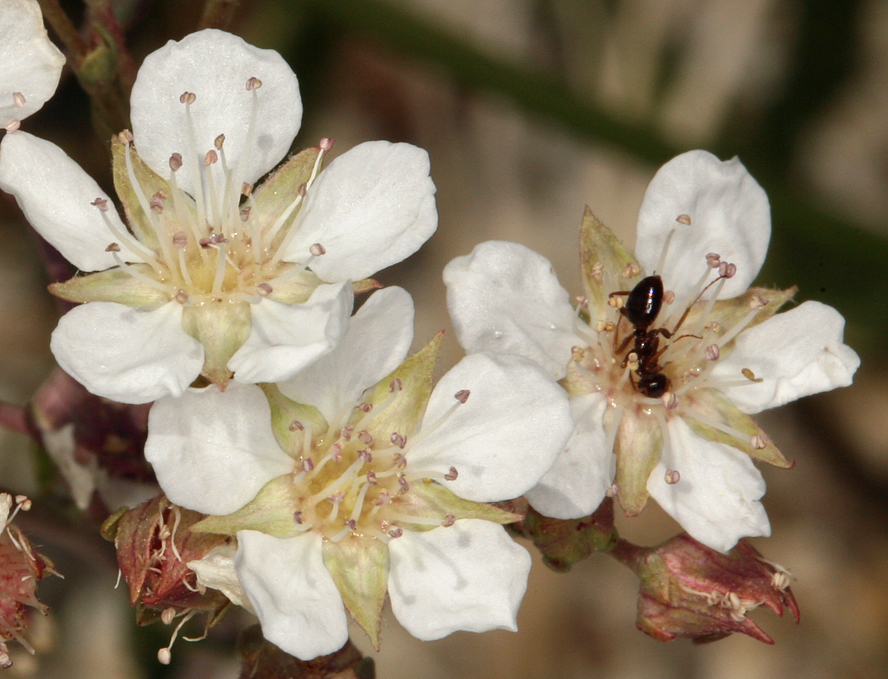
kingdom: Plantae
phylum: Tracheophyta
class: Magnoliopsida
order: Rosales
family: Rosaceae
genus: Potentilla
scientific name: Potentilla kingii
